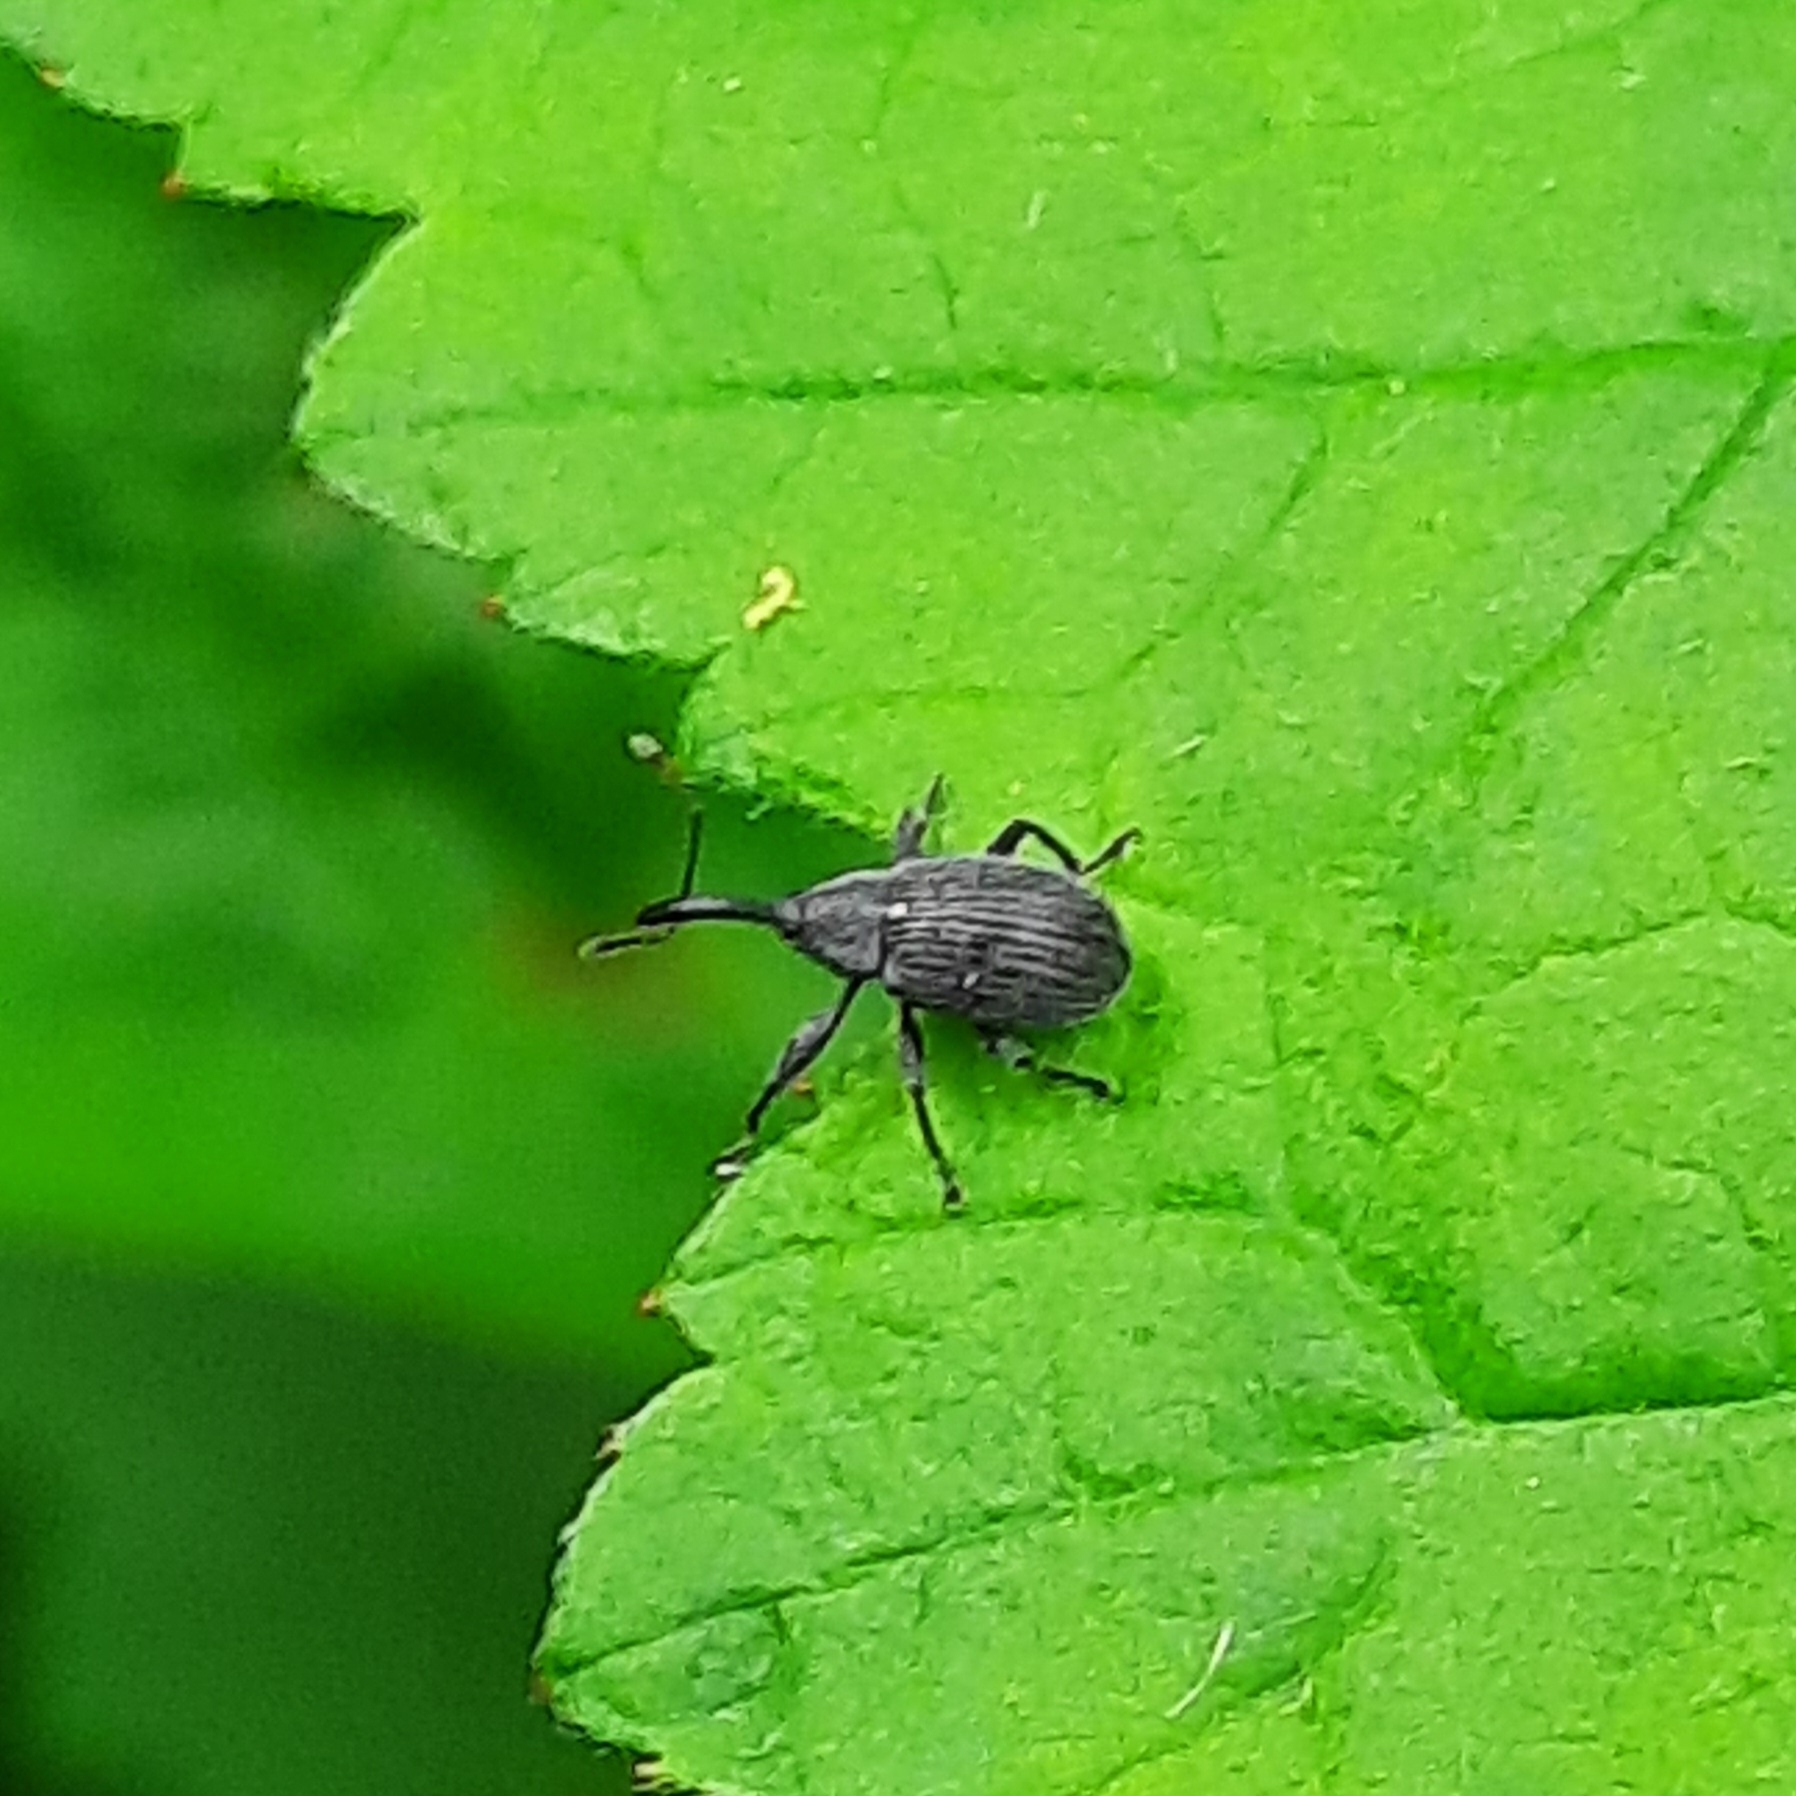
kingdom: Animalia
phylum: Arthropoda
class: Insecta
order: Coleoptera
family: Curculionidae
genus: Anthonomus
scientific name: Anthonomus rubi
